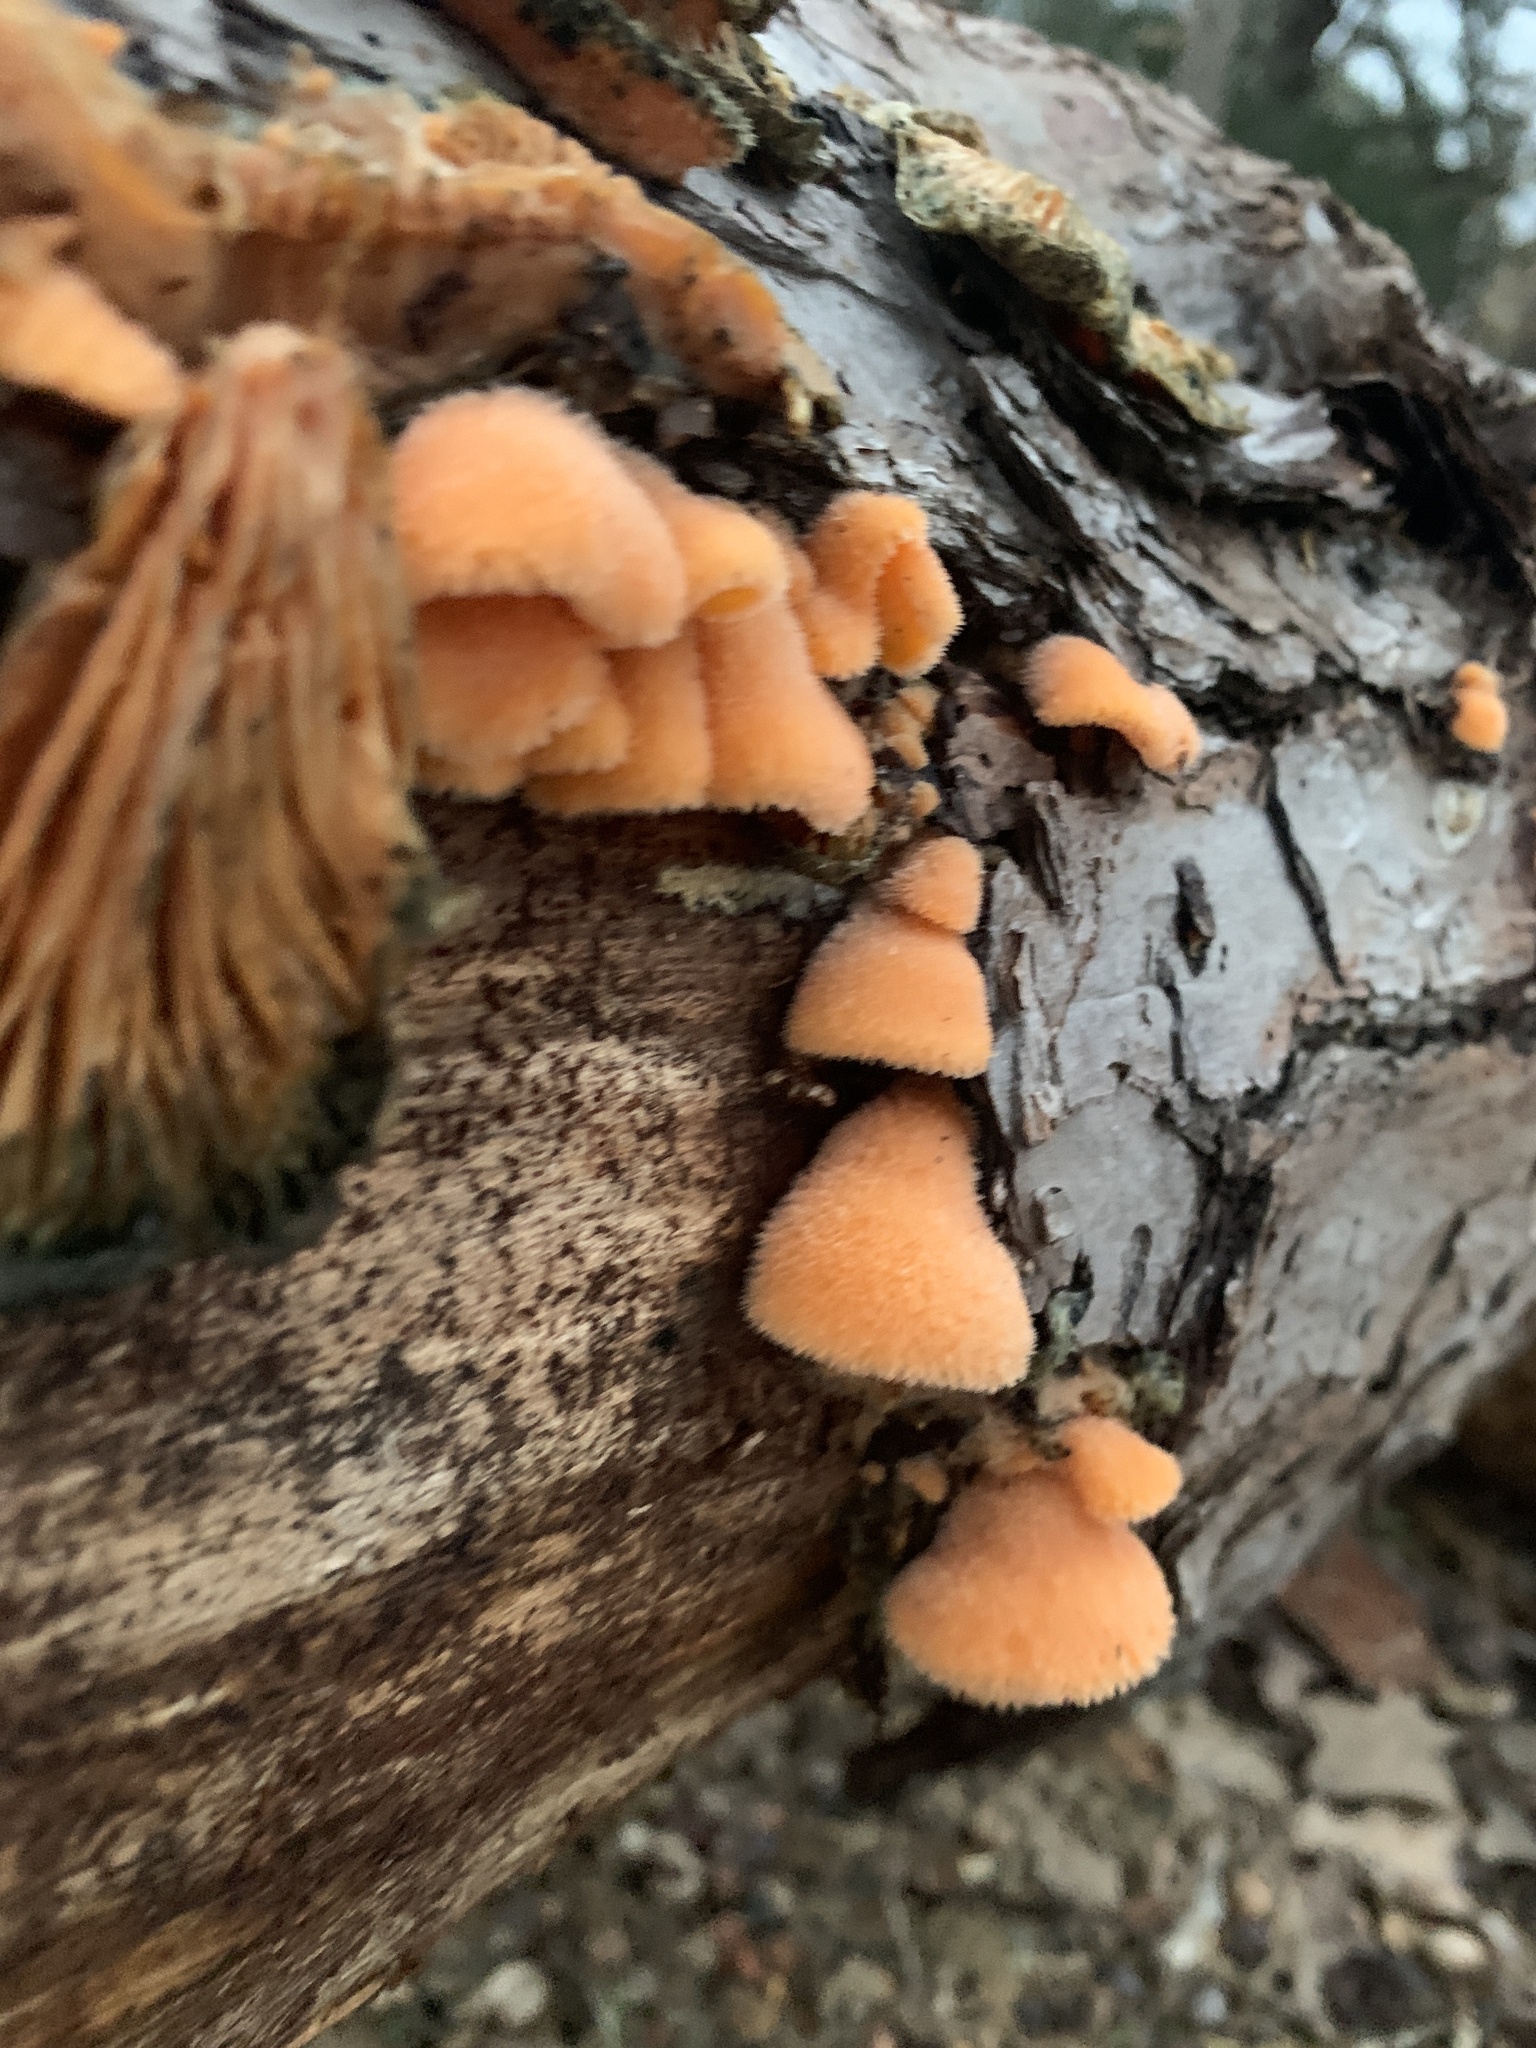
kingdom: Fungi
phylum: Basidiomycota
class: Agaricomycetes
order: Agaricales
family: Phyllotopsidaceae
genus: Phyllotopsis
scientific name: Phyllotopsis nidulans
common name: Orange mock oyster
